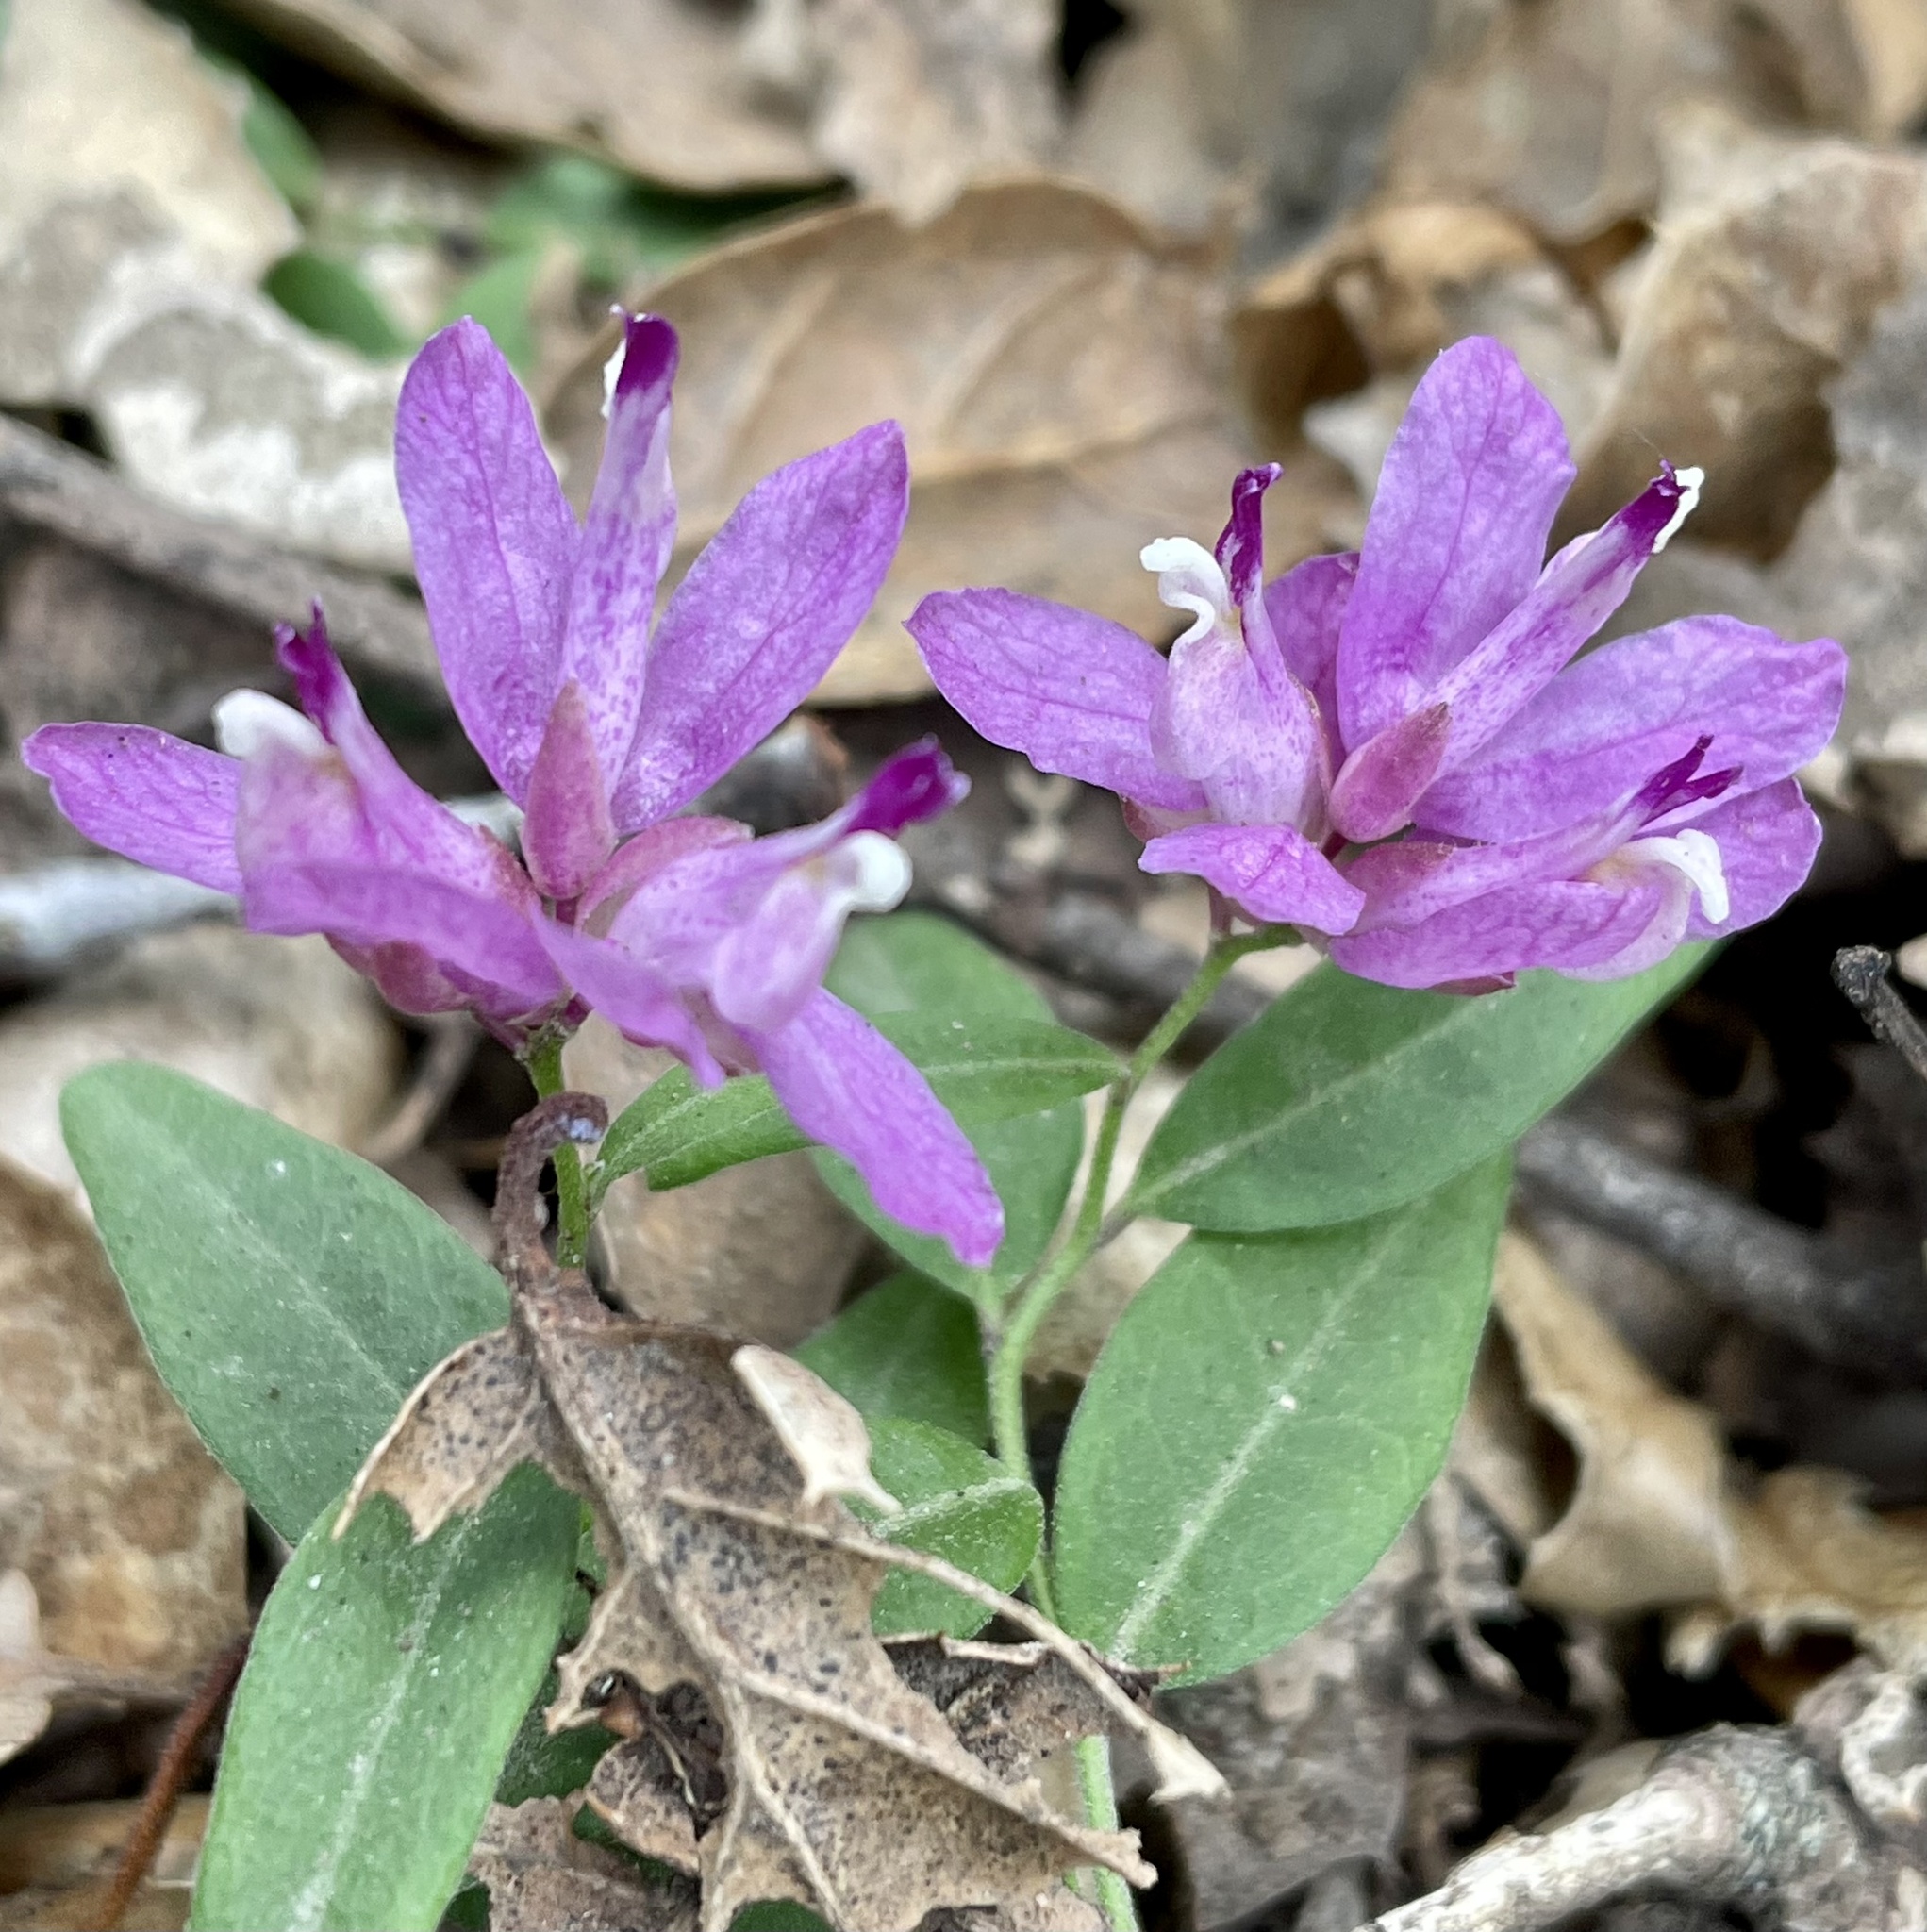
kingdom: Plantae
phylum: Tracheophyta
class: Magnoliopsida
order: Fabales
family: Polygalaceae
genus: Rhinotropis
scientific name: Rhinotropis californica
